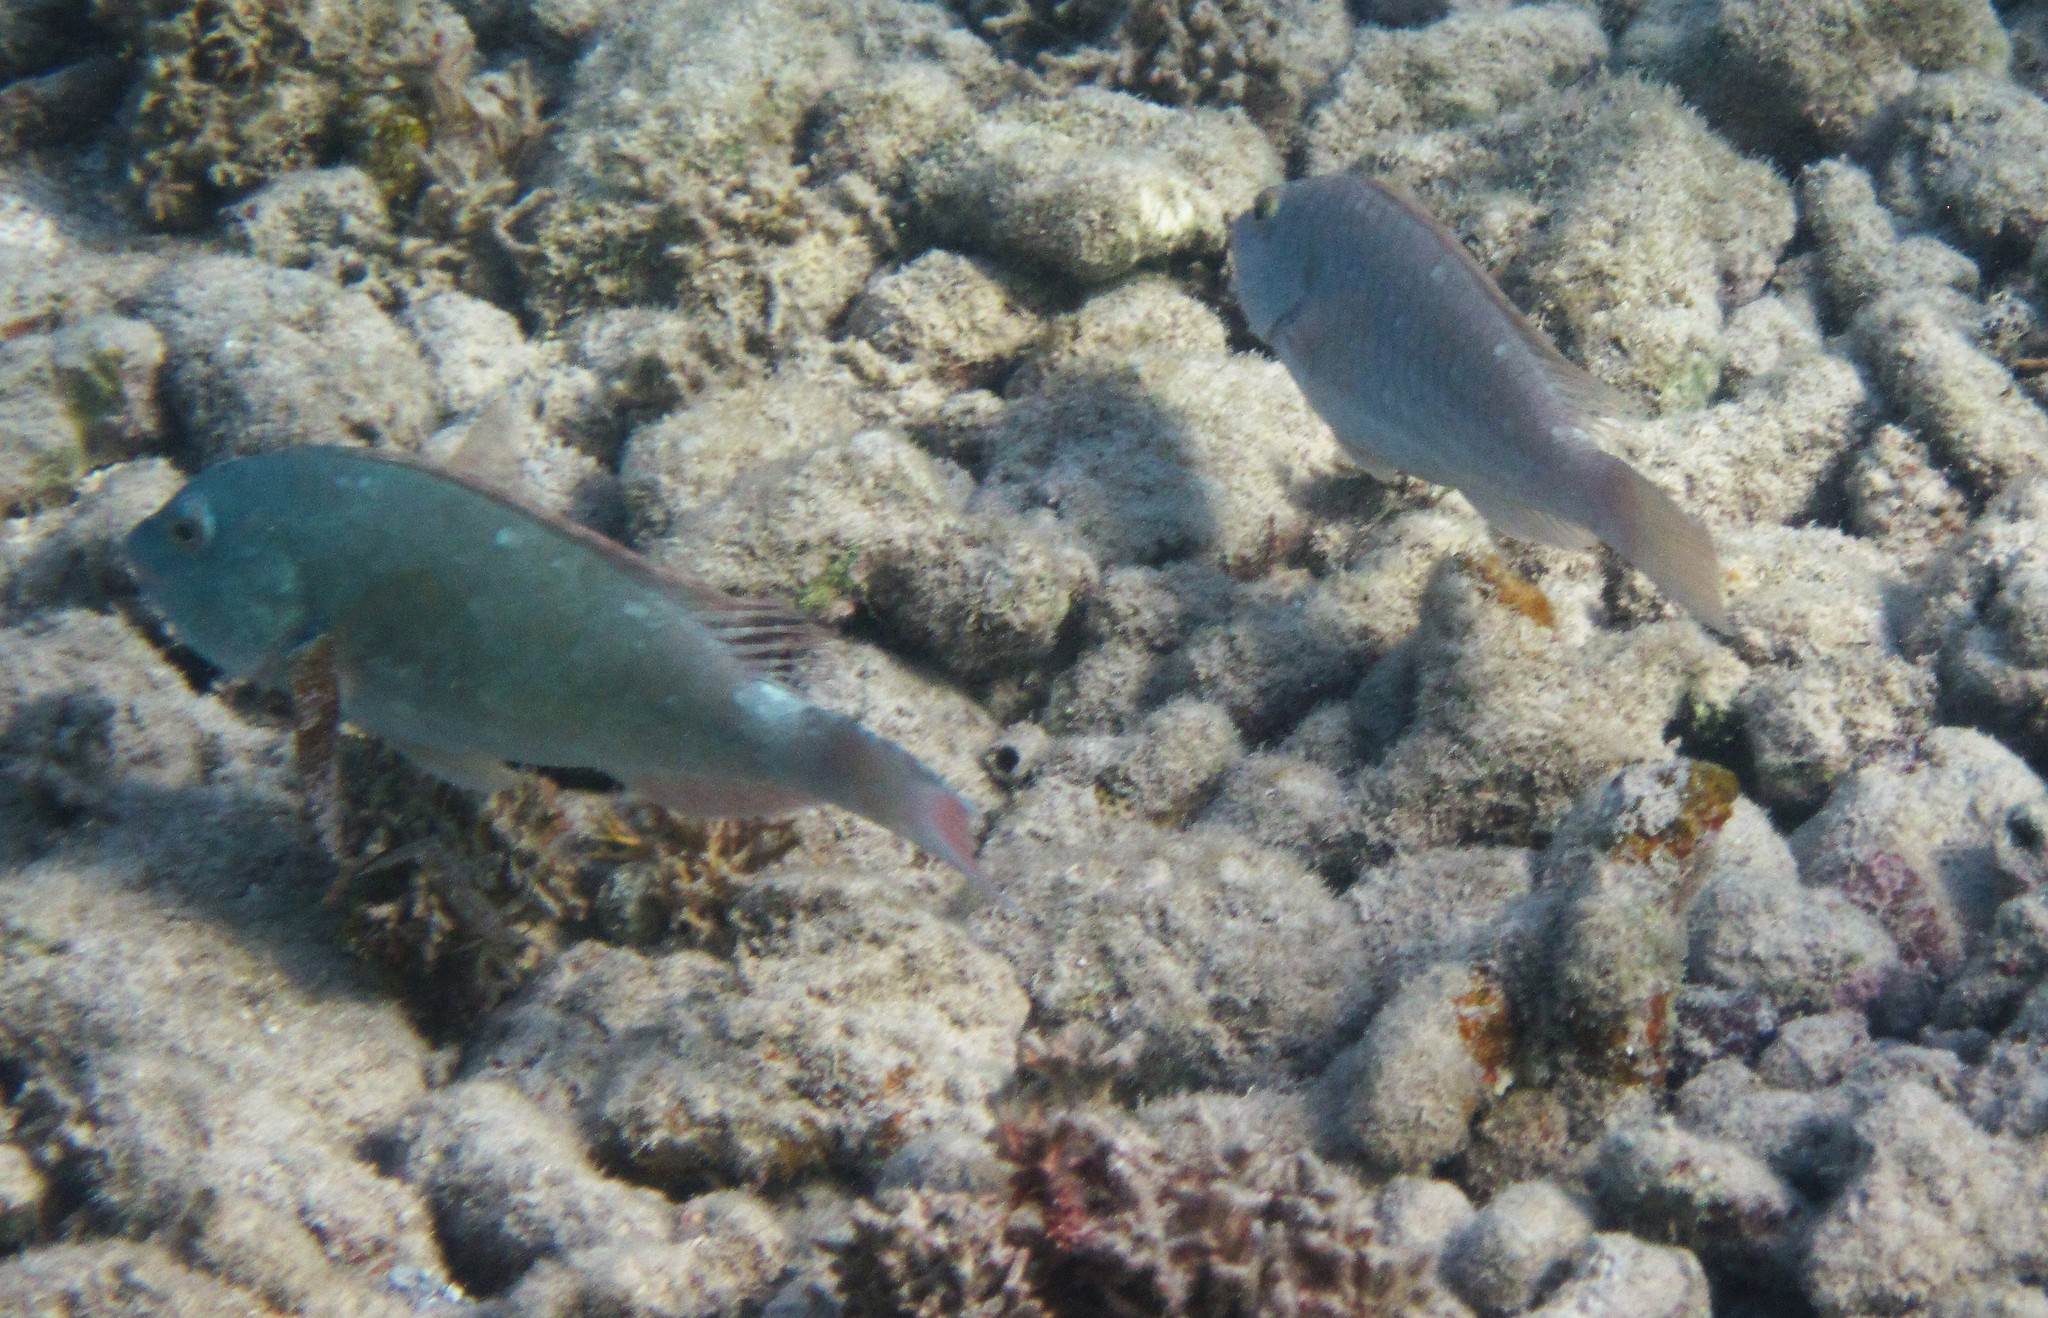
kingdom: Animalia
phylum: Chordata
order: Perciformes
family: Scaridae
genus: Sparisoma
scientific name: Sparisoma chrysopterum
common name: Redtail parrotfish
